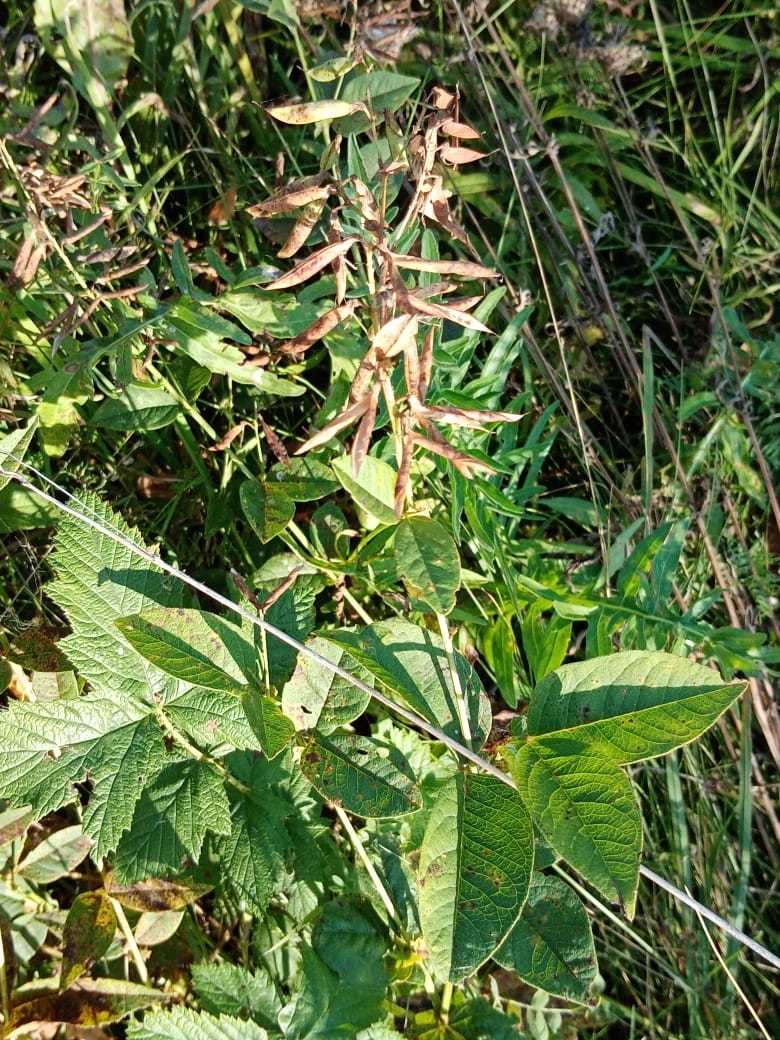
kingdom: Plantae
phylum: Tracheophyta
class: Magnoliopsida
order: Fabales
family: Fabaceae
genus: Vicia
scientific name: Vicia unijuga
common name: Two-leaf vetch
